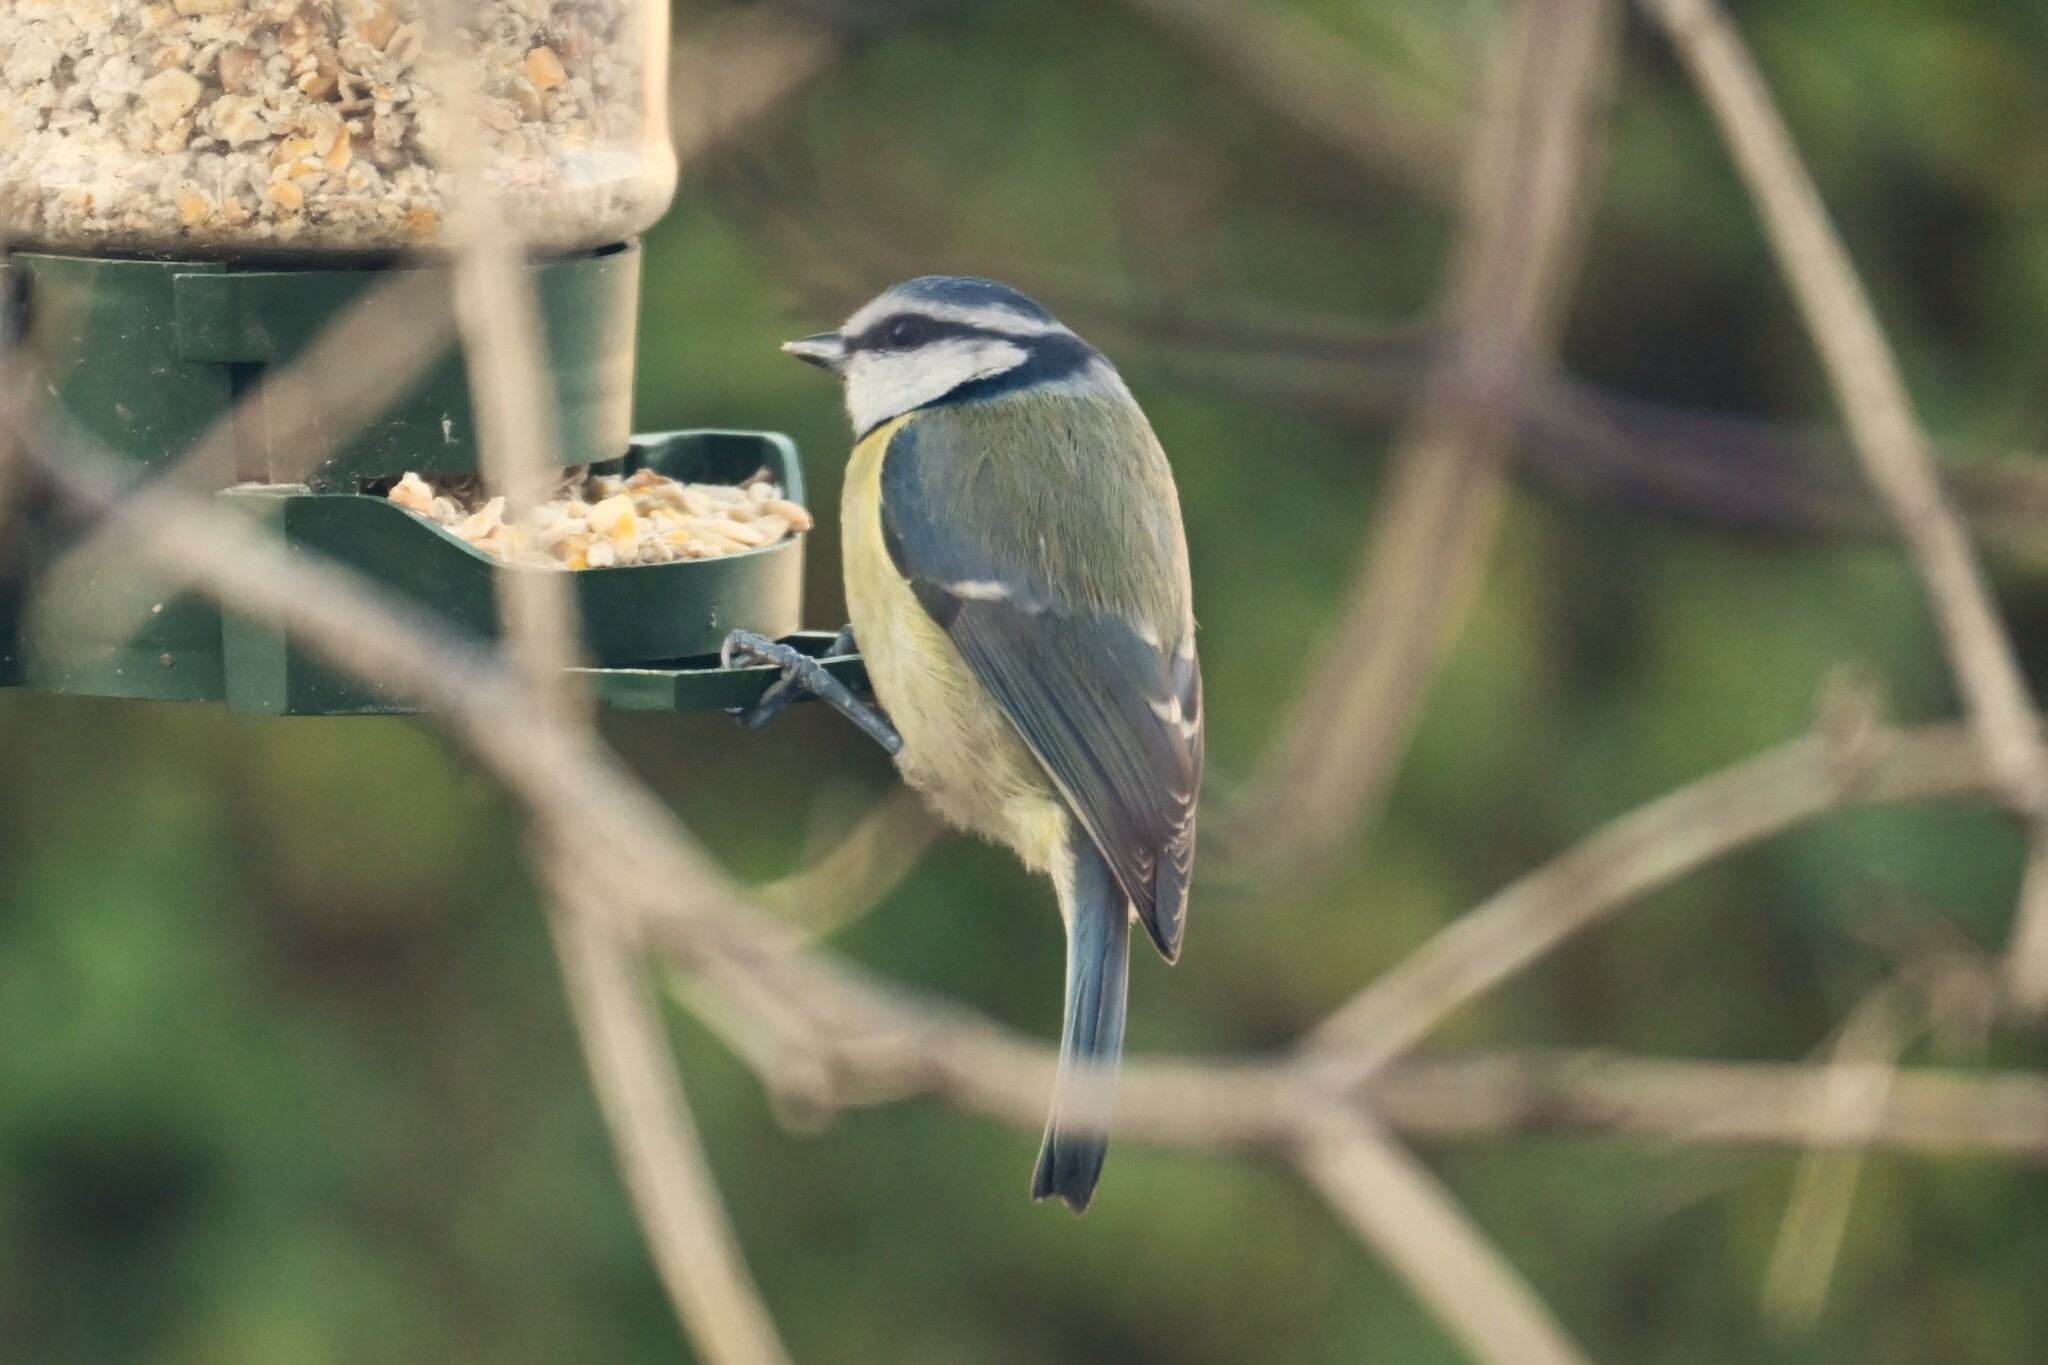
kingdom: Animalia
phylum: Chordata
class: Aves
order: Passeriformes
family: Paridae
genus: Cyanistes
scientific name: Cyanistes caeruleus
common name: Eurasian blue tit
